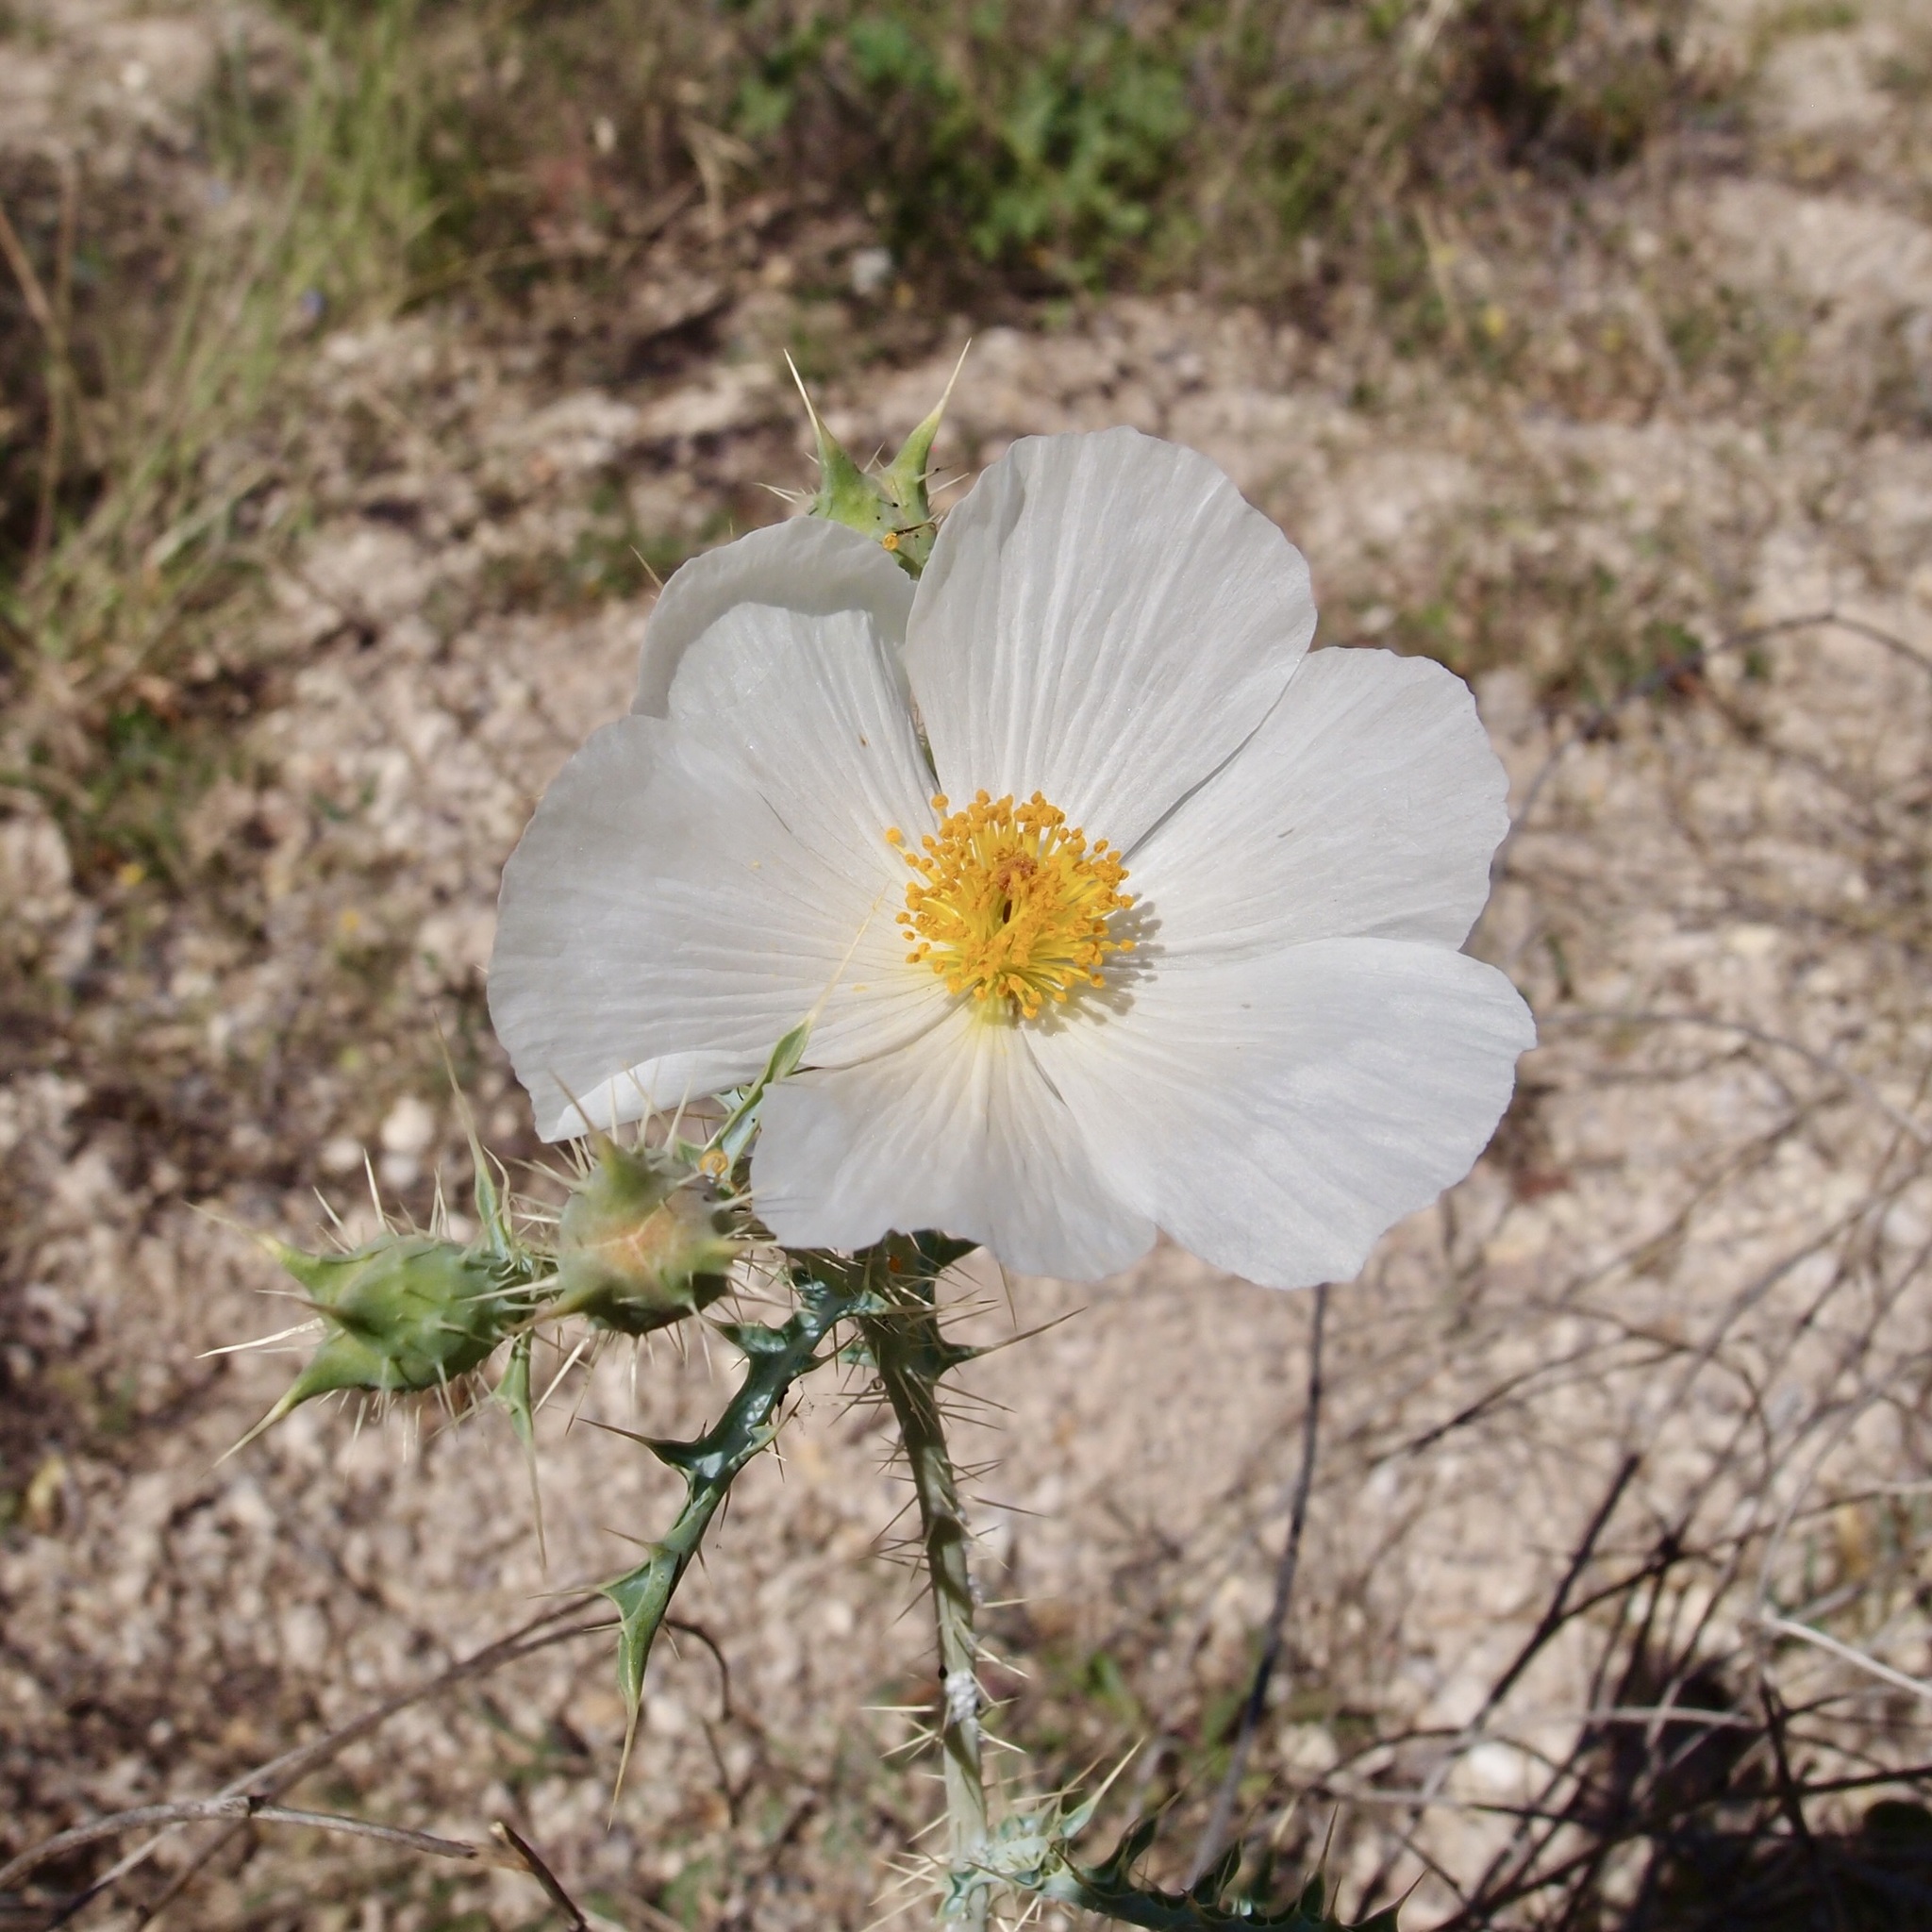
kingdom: Plantae
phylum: Tracheophyta
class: Magnoliopsida
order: Ranunculales
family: Papaveraceae
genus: Argemone
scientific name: Argemone gracilenta
